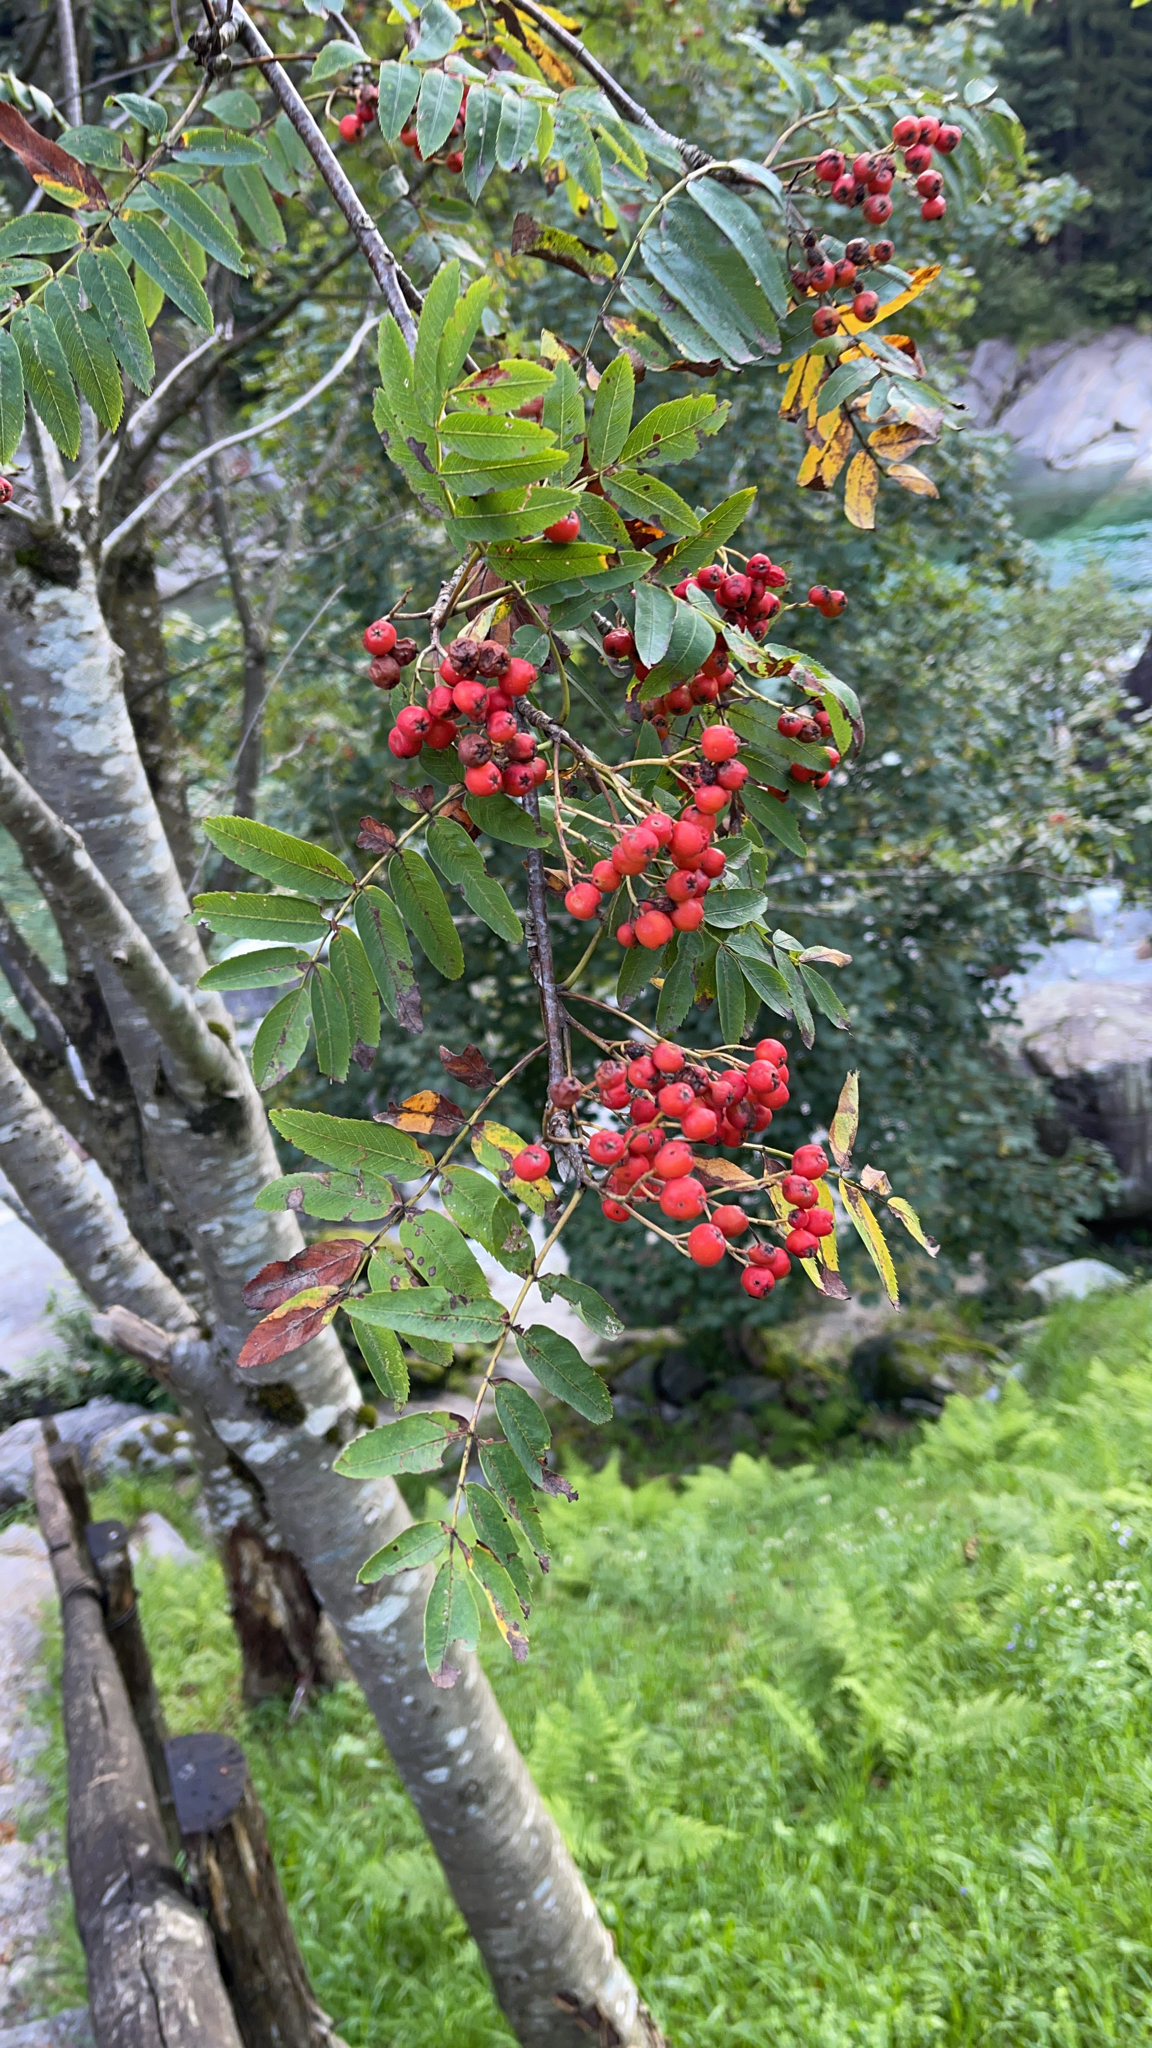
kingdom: Plantae
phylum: Tracheophyta
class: Magnoliopsida
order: Rosales
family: Rosaceae
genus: Sorbus
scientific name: Sorbus aucuparia
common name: Rowan
